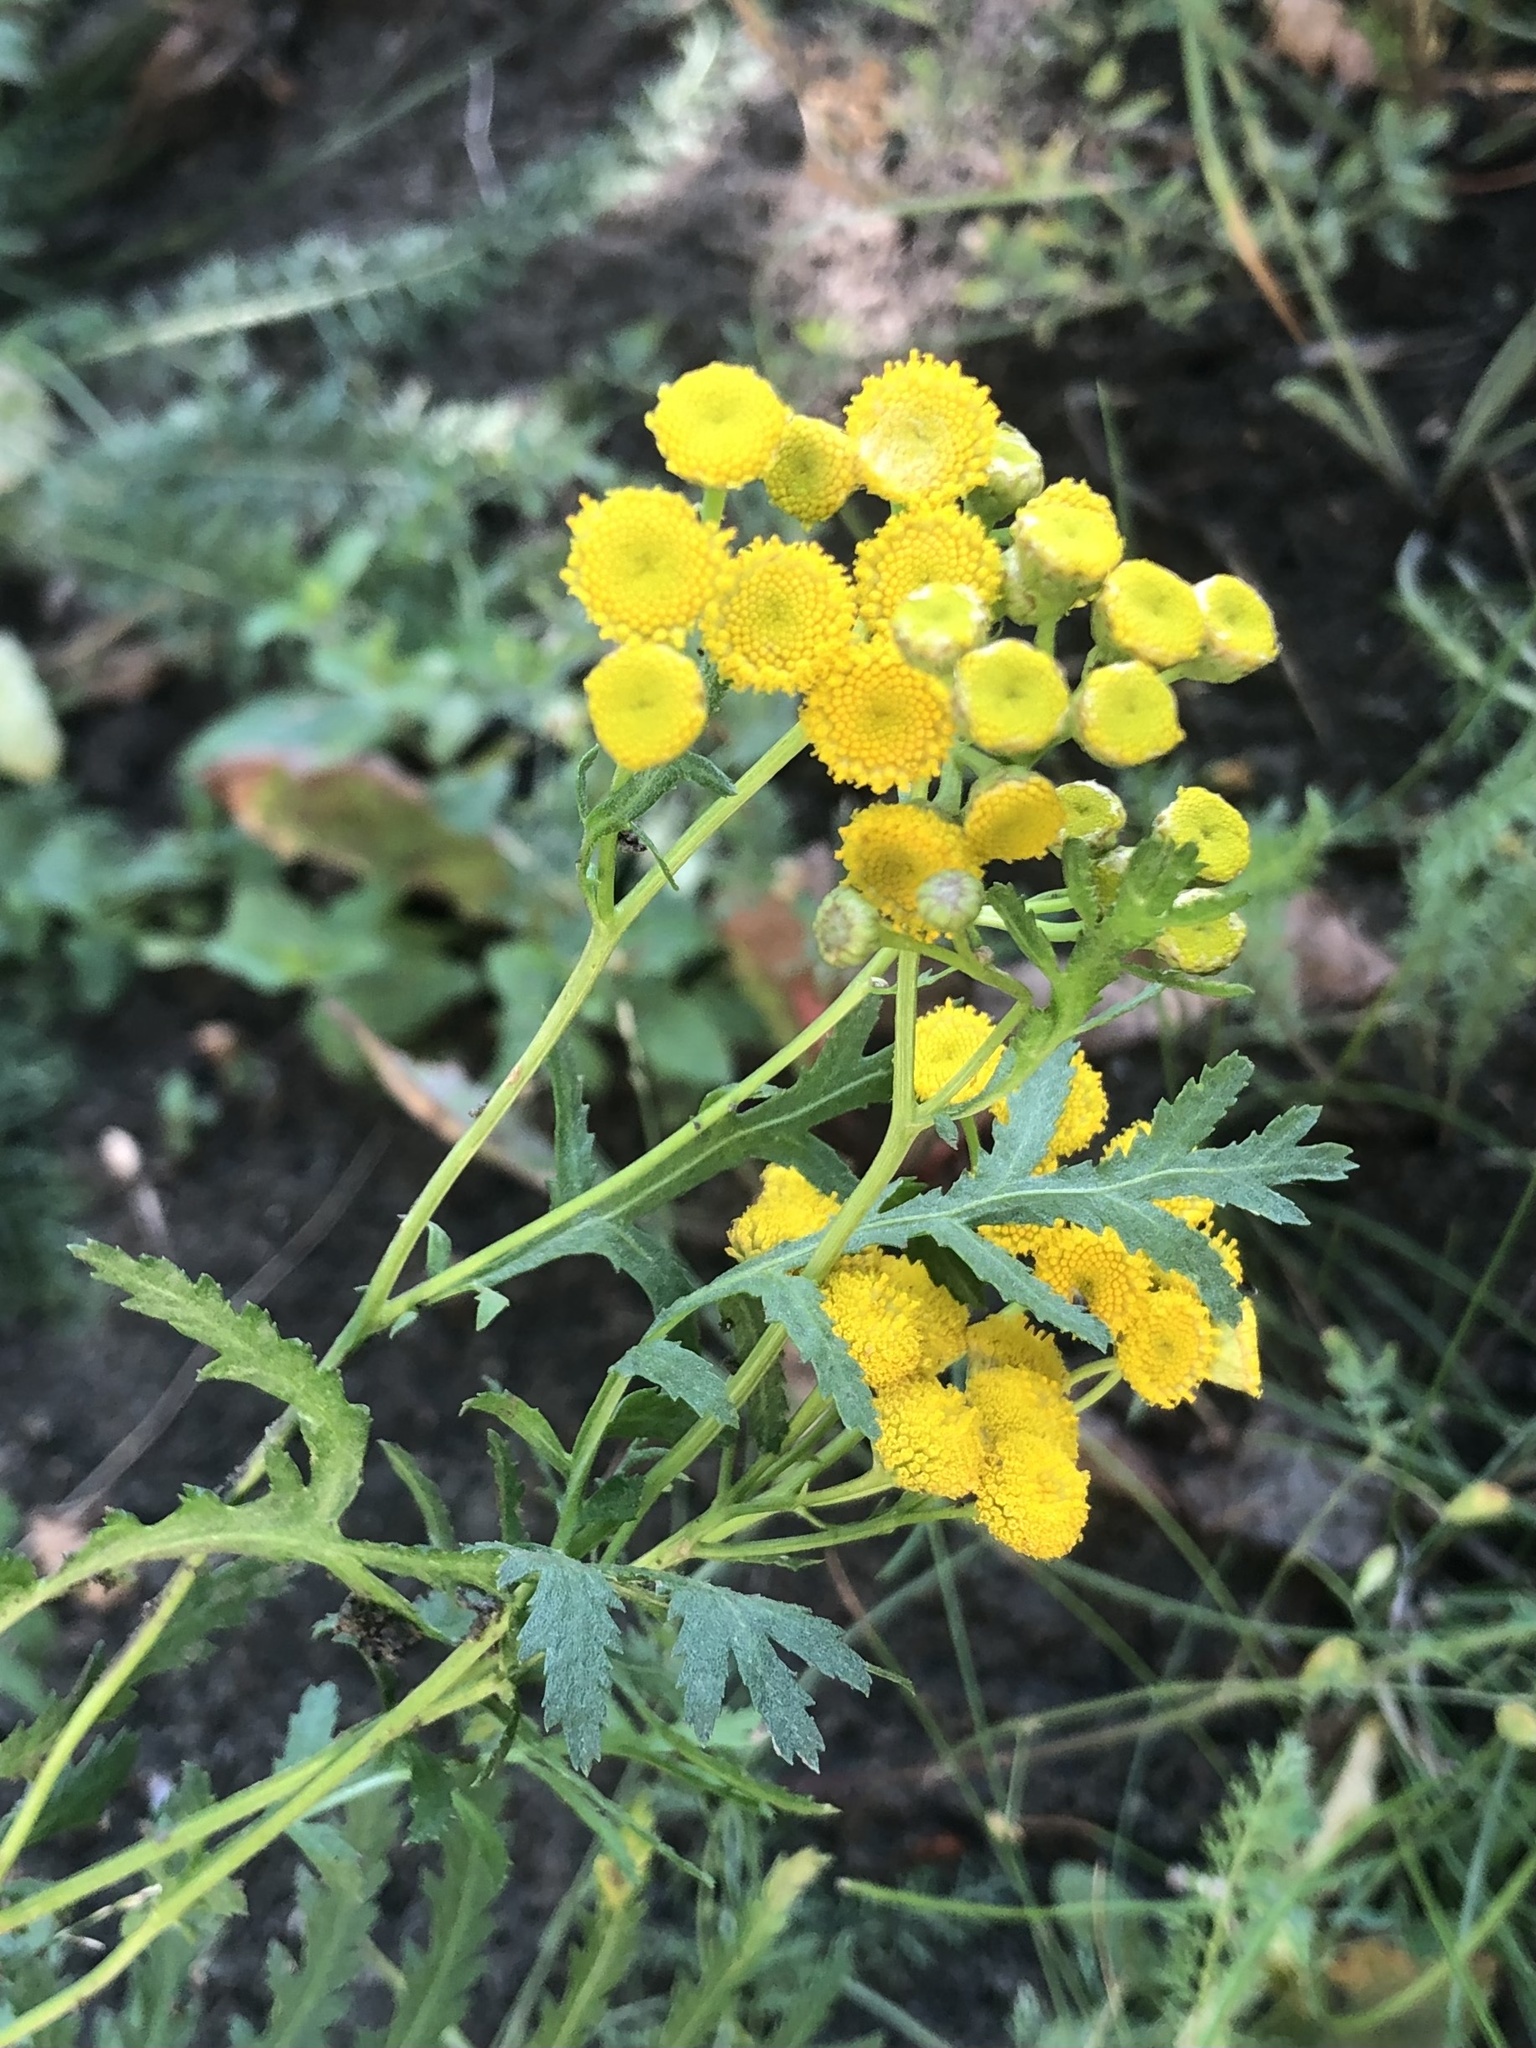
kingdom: Plantae
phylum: Tracheophyta
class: Magnoliopsida
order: Asterales
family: Asteraceae
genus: Tanacetum
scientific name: Tanacetum vulgare
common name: Common tansy
